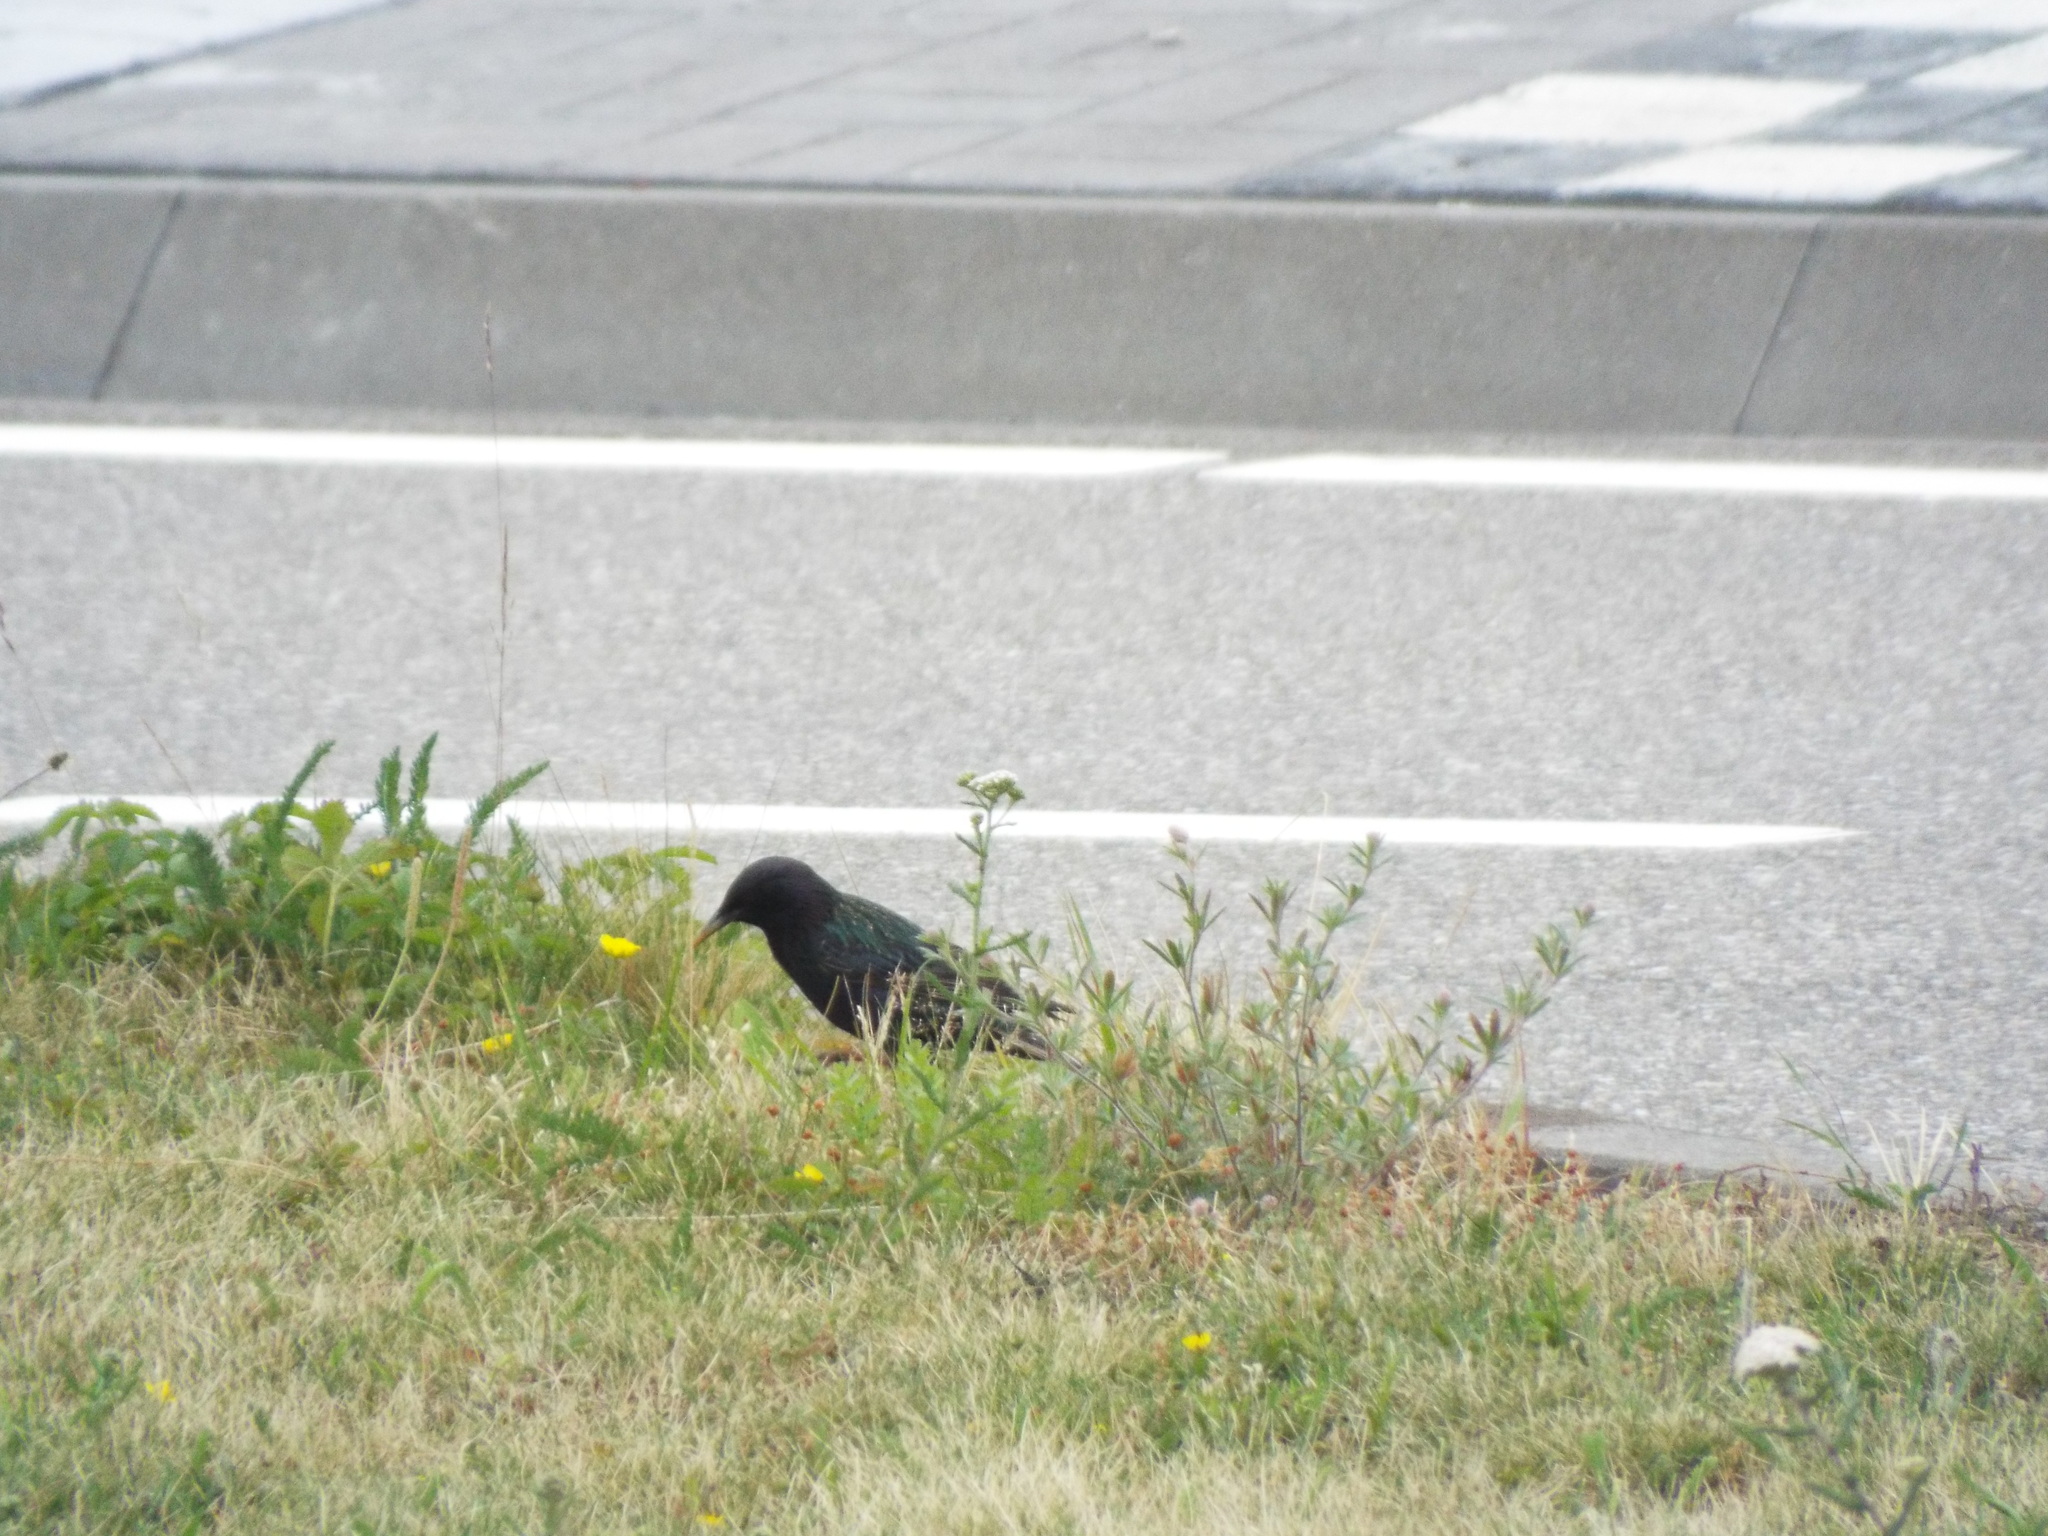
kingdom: Animalia
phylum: Chordata
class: Aves
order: Passeriformes
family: Sturnidae
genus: Sturnus
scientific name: Sturnus vulgaris
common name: Common starling
